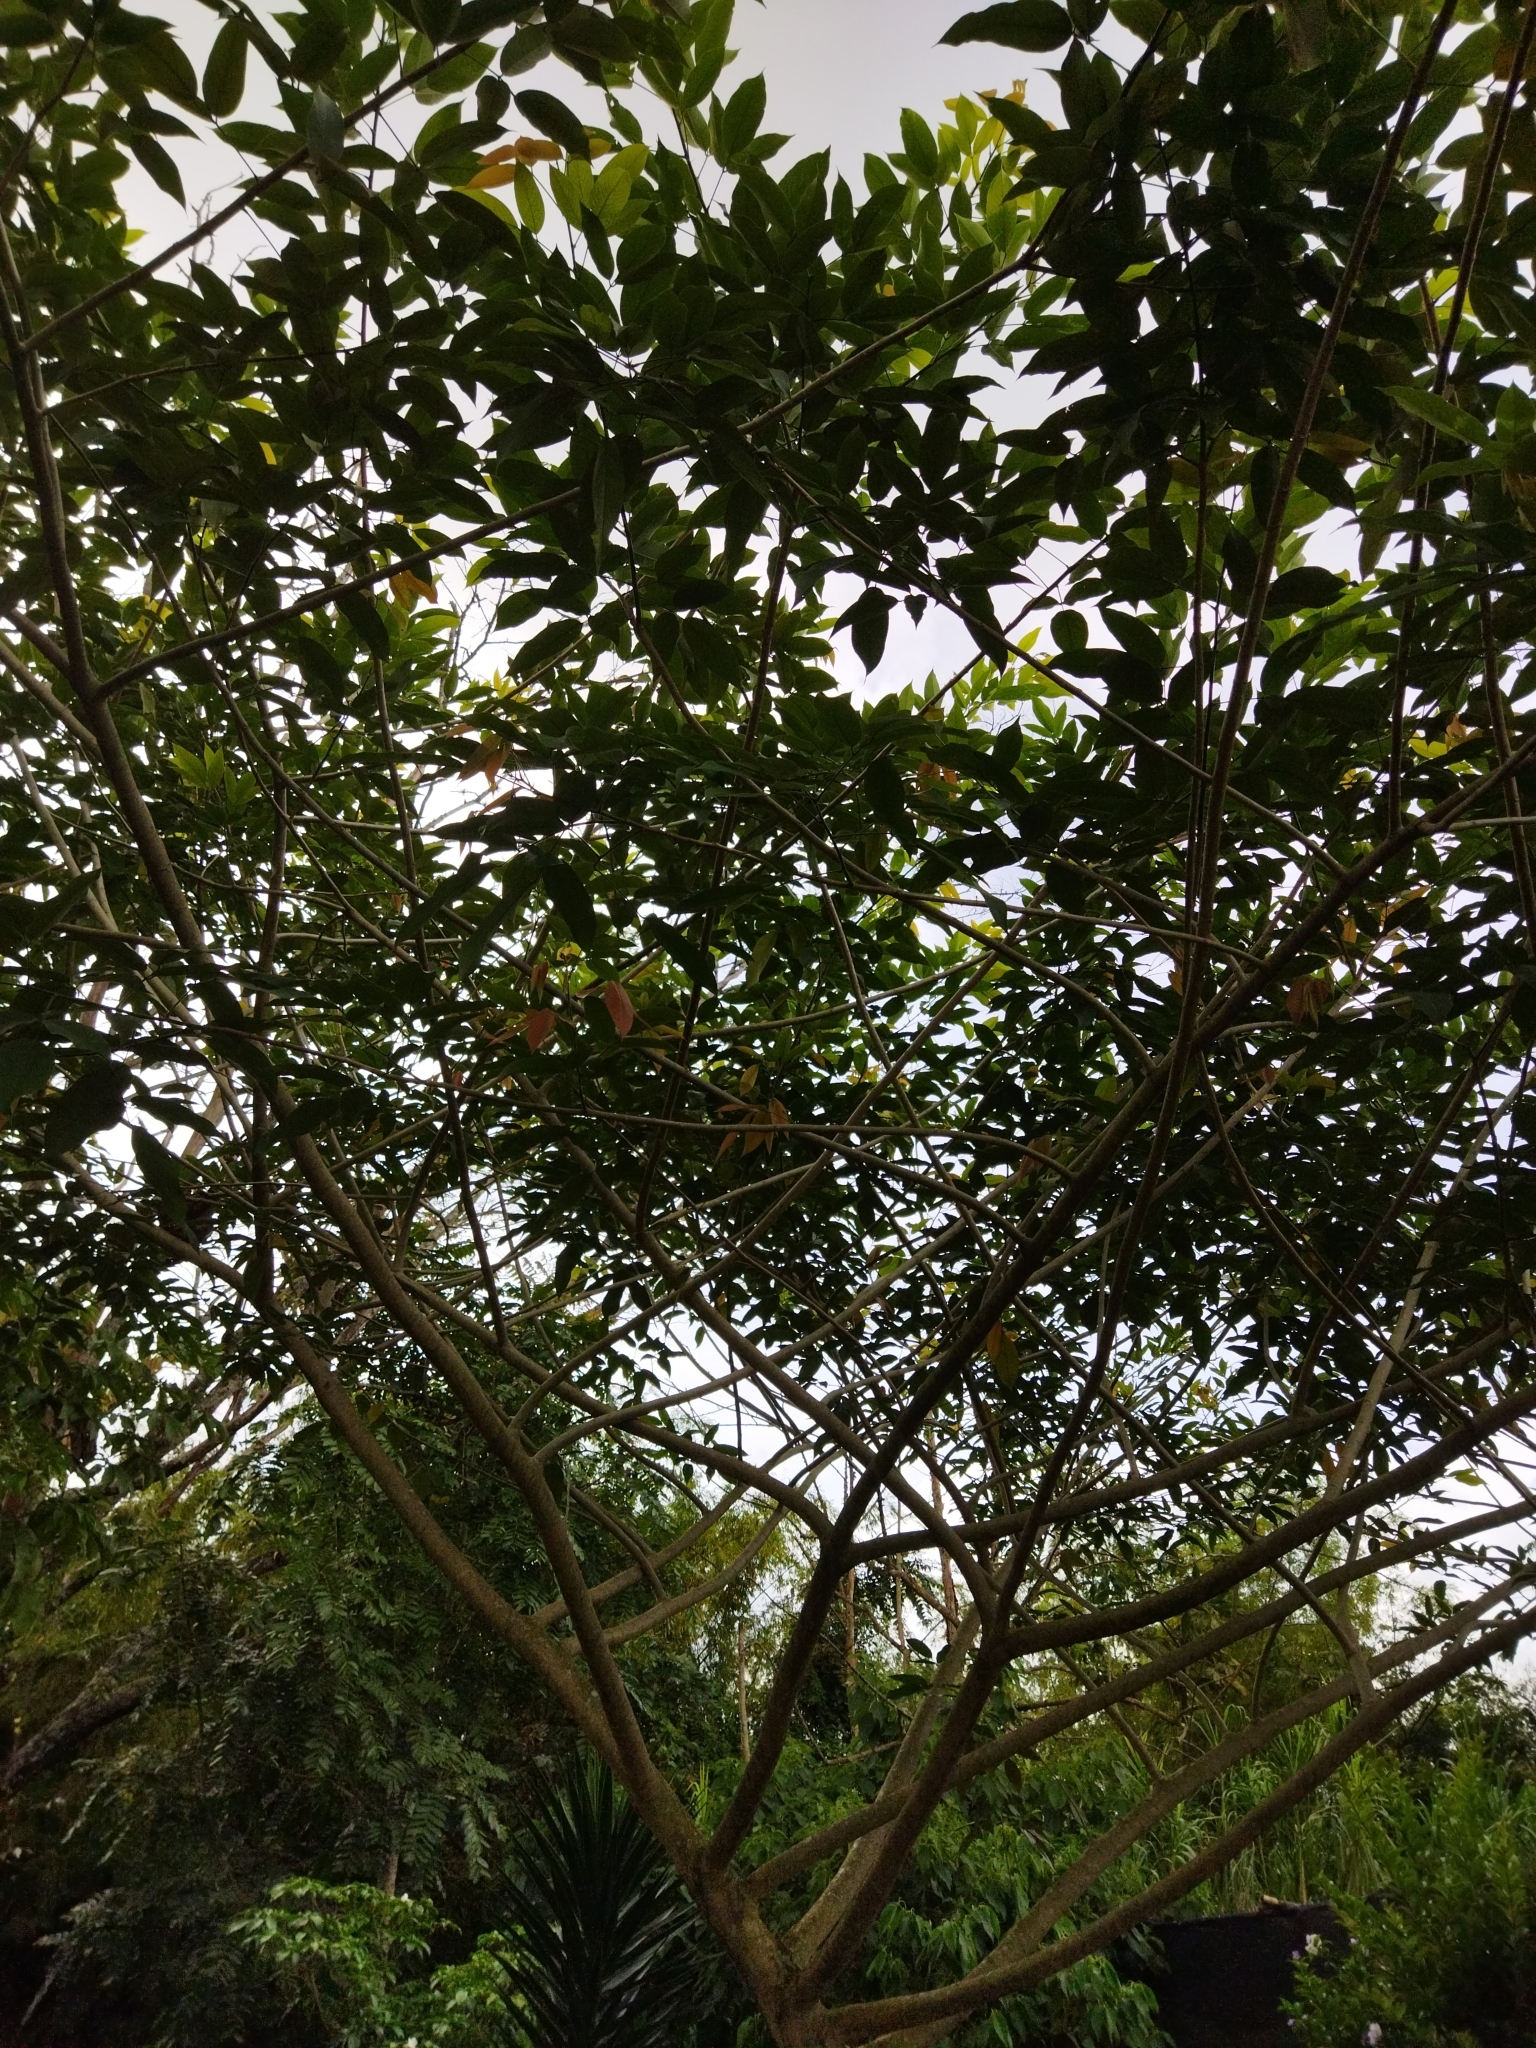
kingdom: Plantae
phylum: Tracheophyta
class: Magnoliopsida
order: Fabales
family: Fabaceae
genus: Clitoria
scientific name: Clitoria fairchildiana
